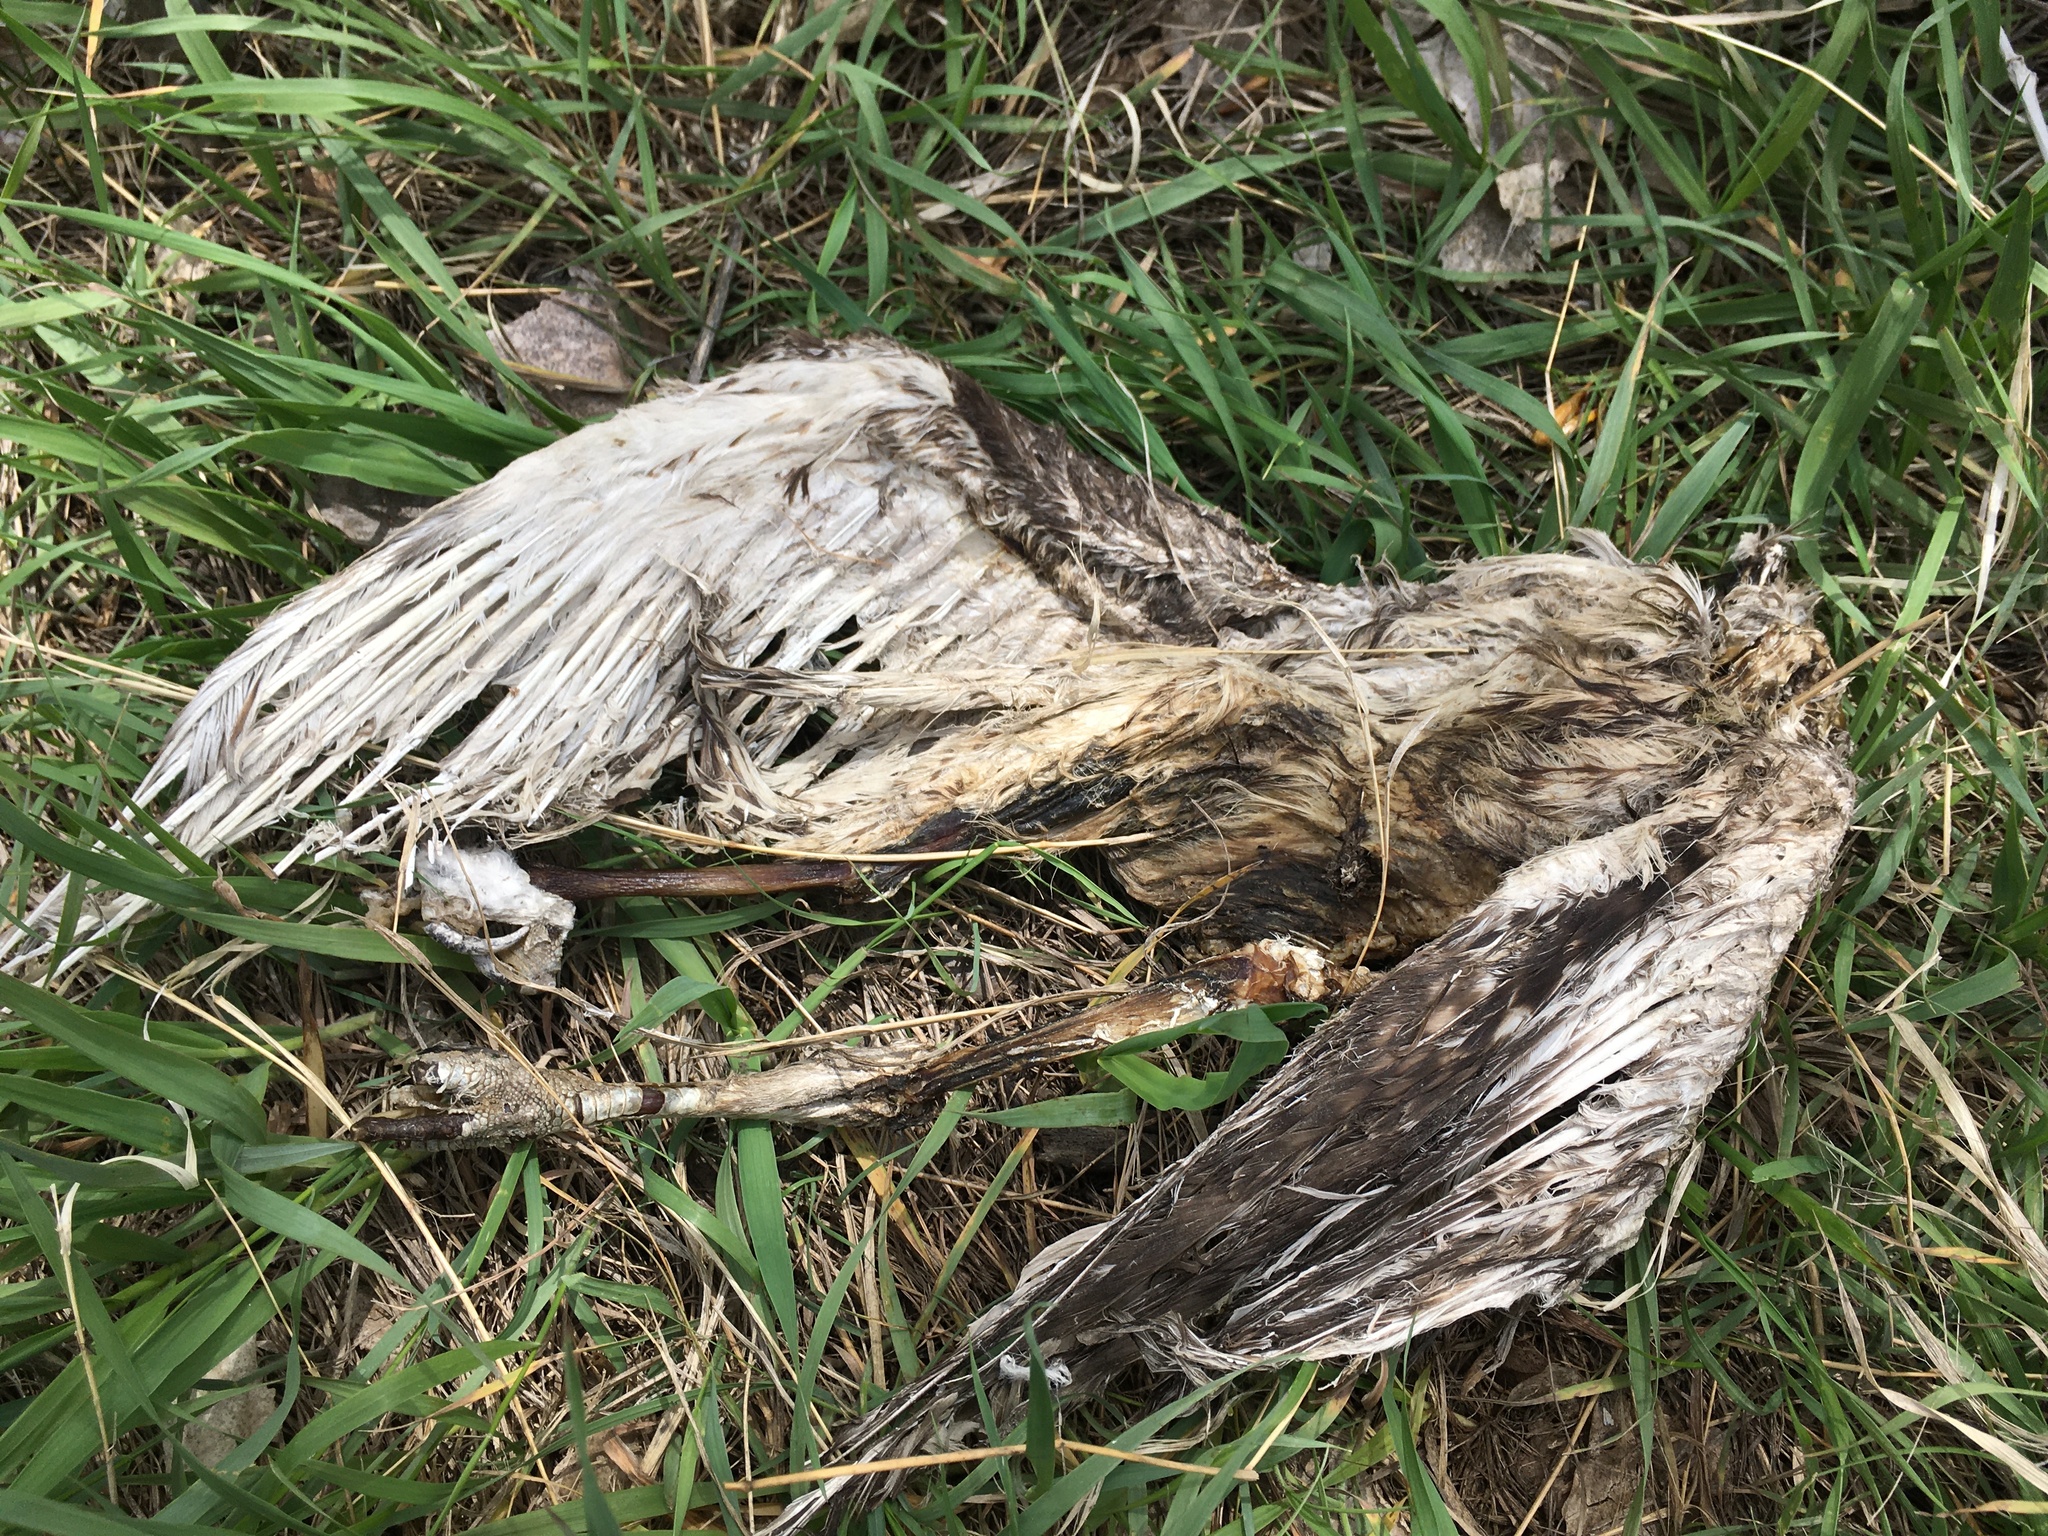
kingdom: Animalia
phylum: Chordata
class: Aves
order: Accipitriformes
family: Accipitridae
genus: Buteo
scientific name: Buteo jamaicensis
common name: Red-tailed hawk
